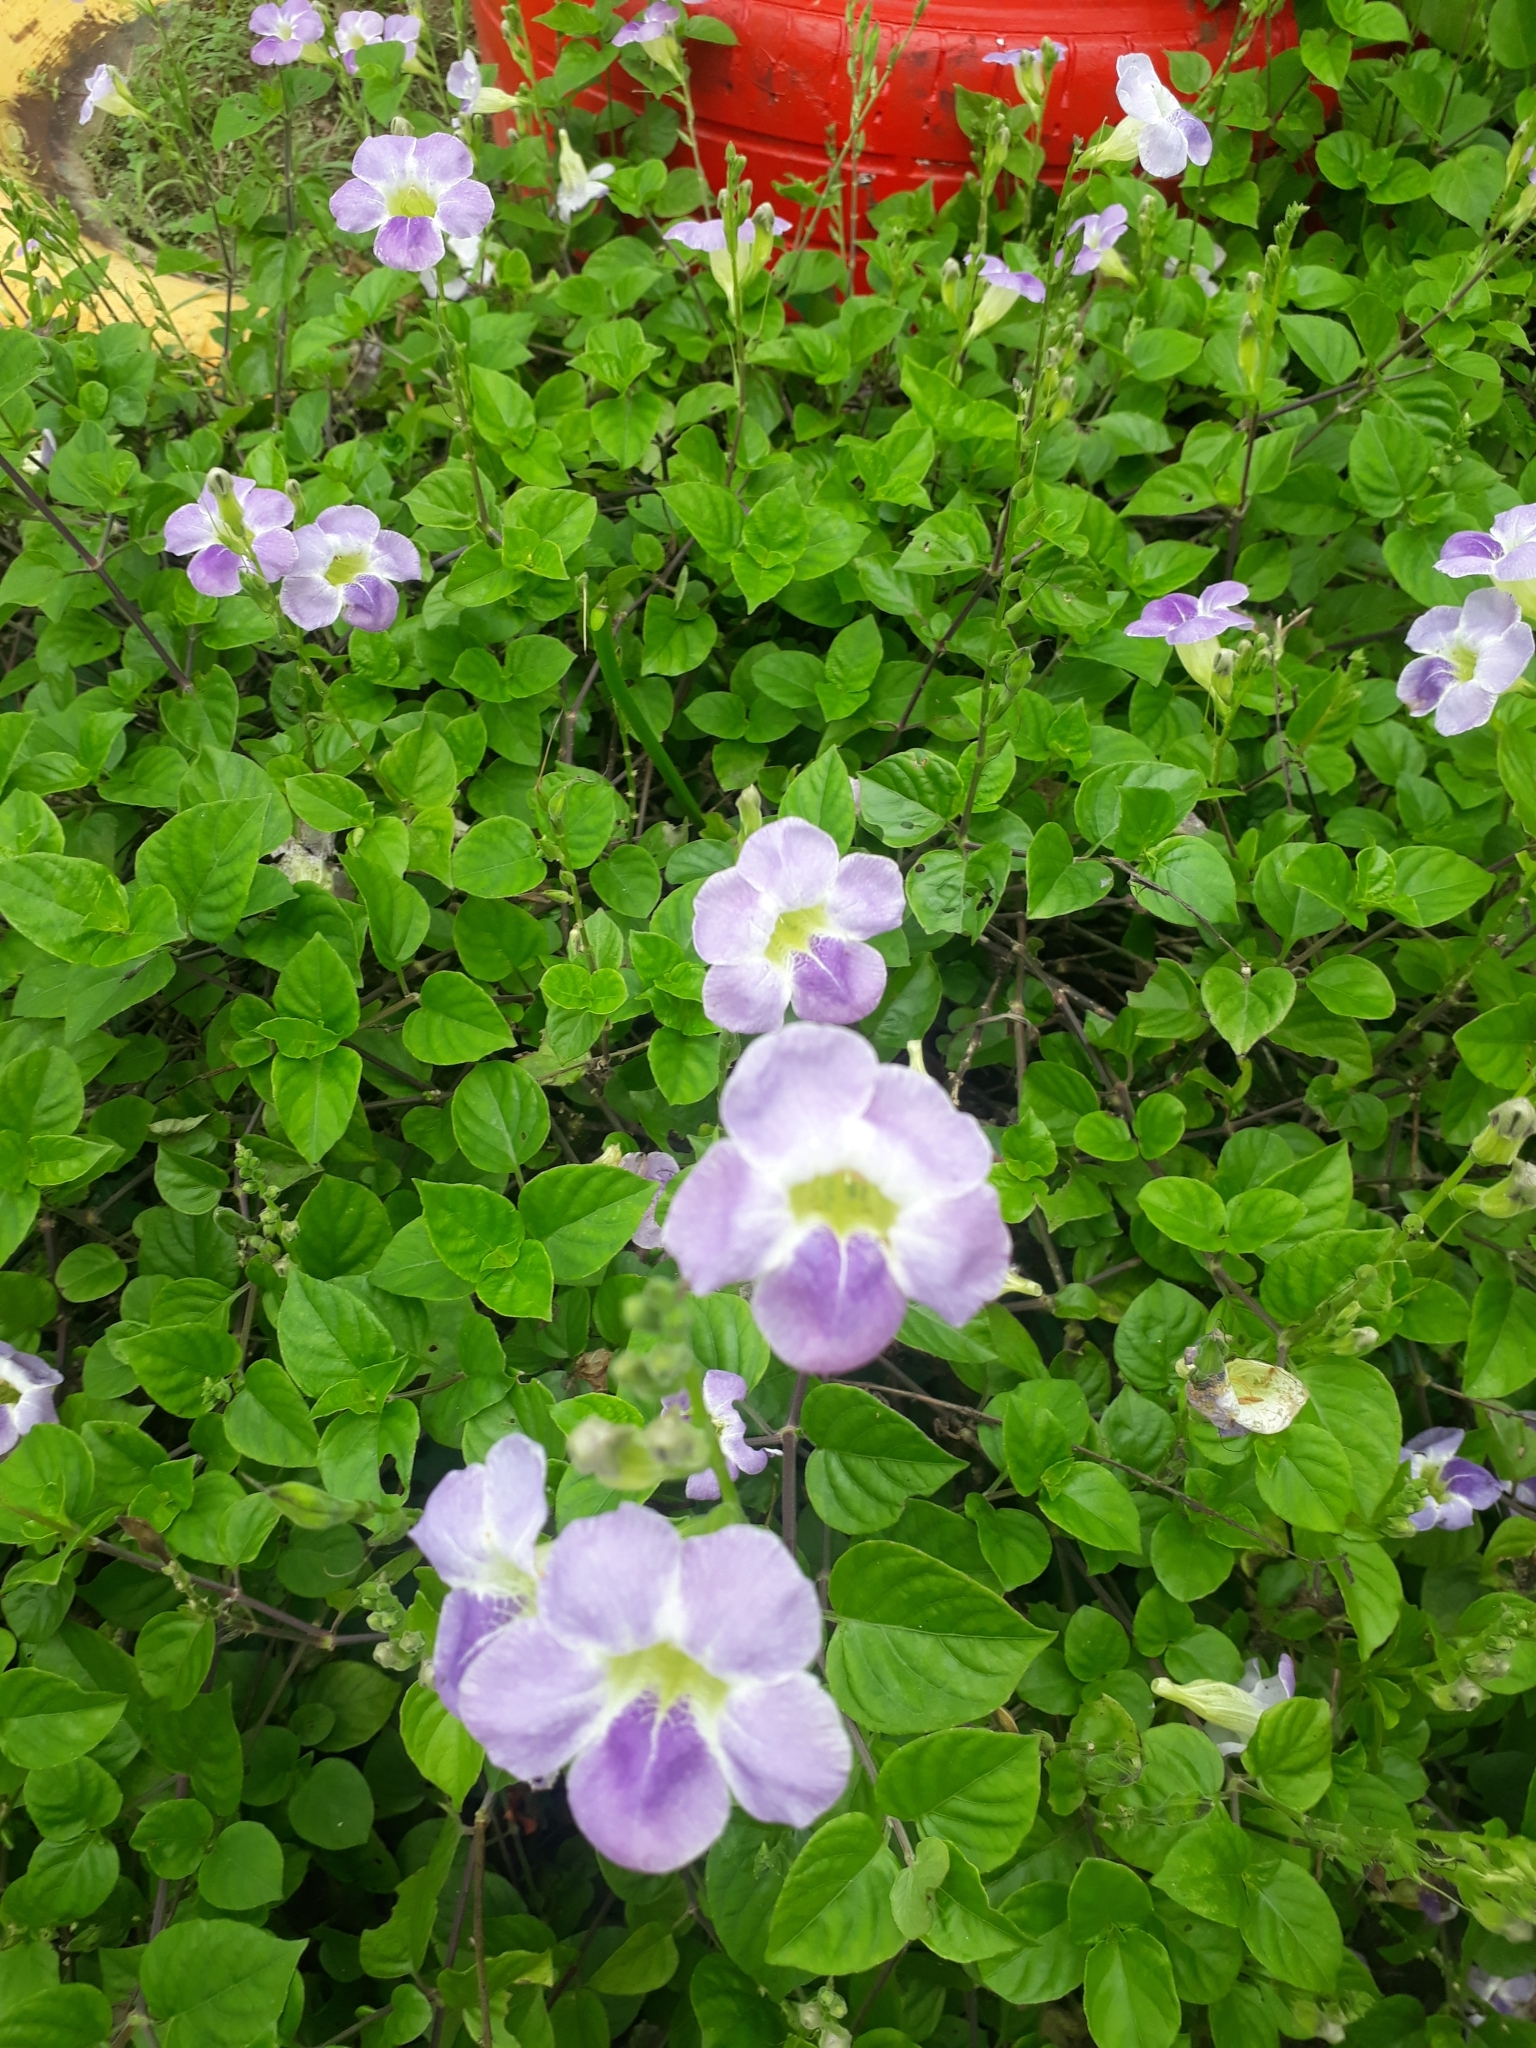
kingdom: Plantae
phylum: Tracheophyta
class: Magnoliopsida
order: Lamiales
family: Acanthaceae
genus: Asystasia
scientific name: Asystasia gangetica
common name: Chinese violet
